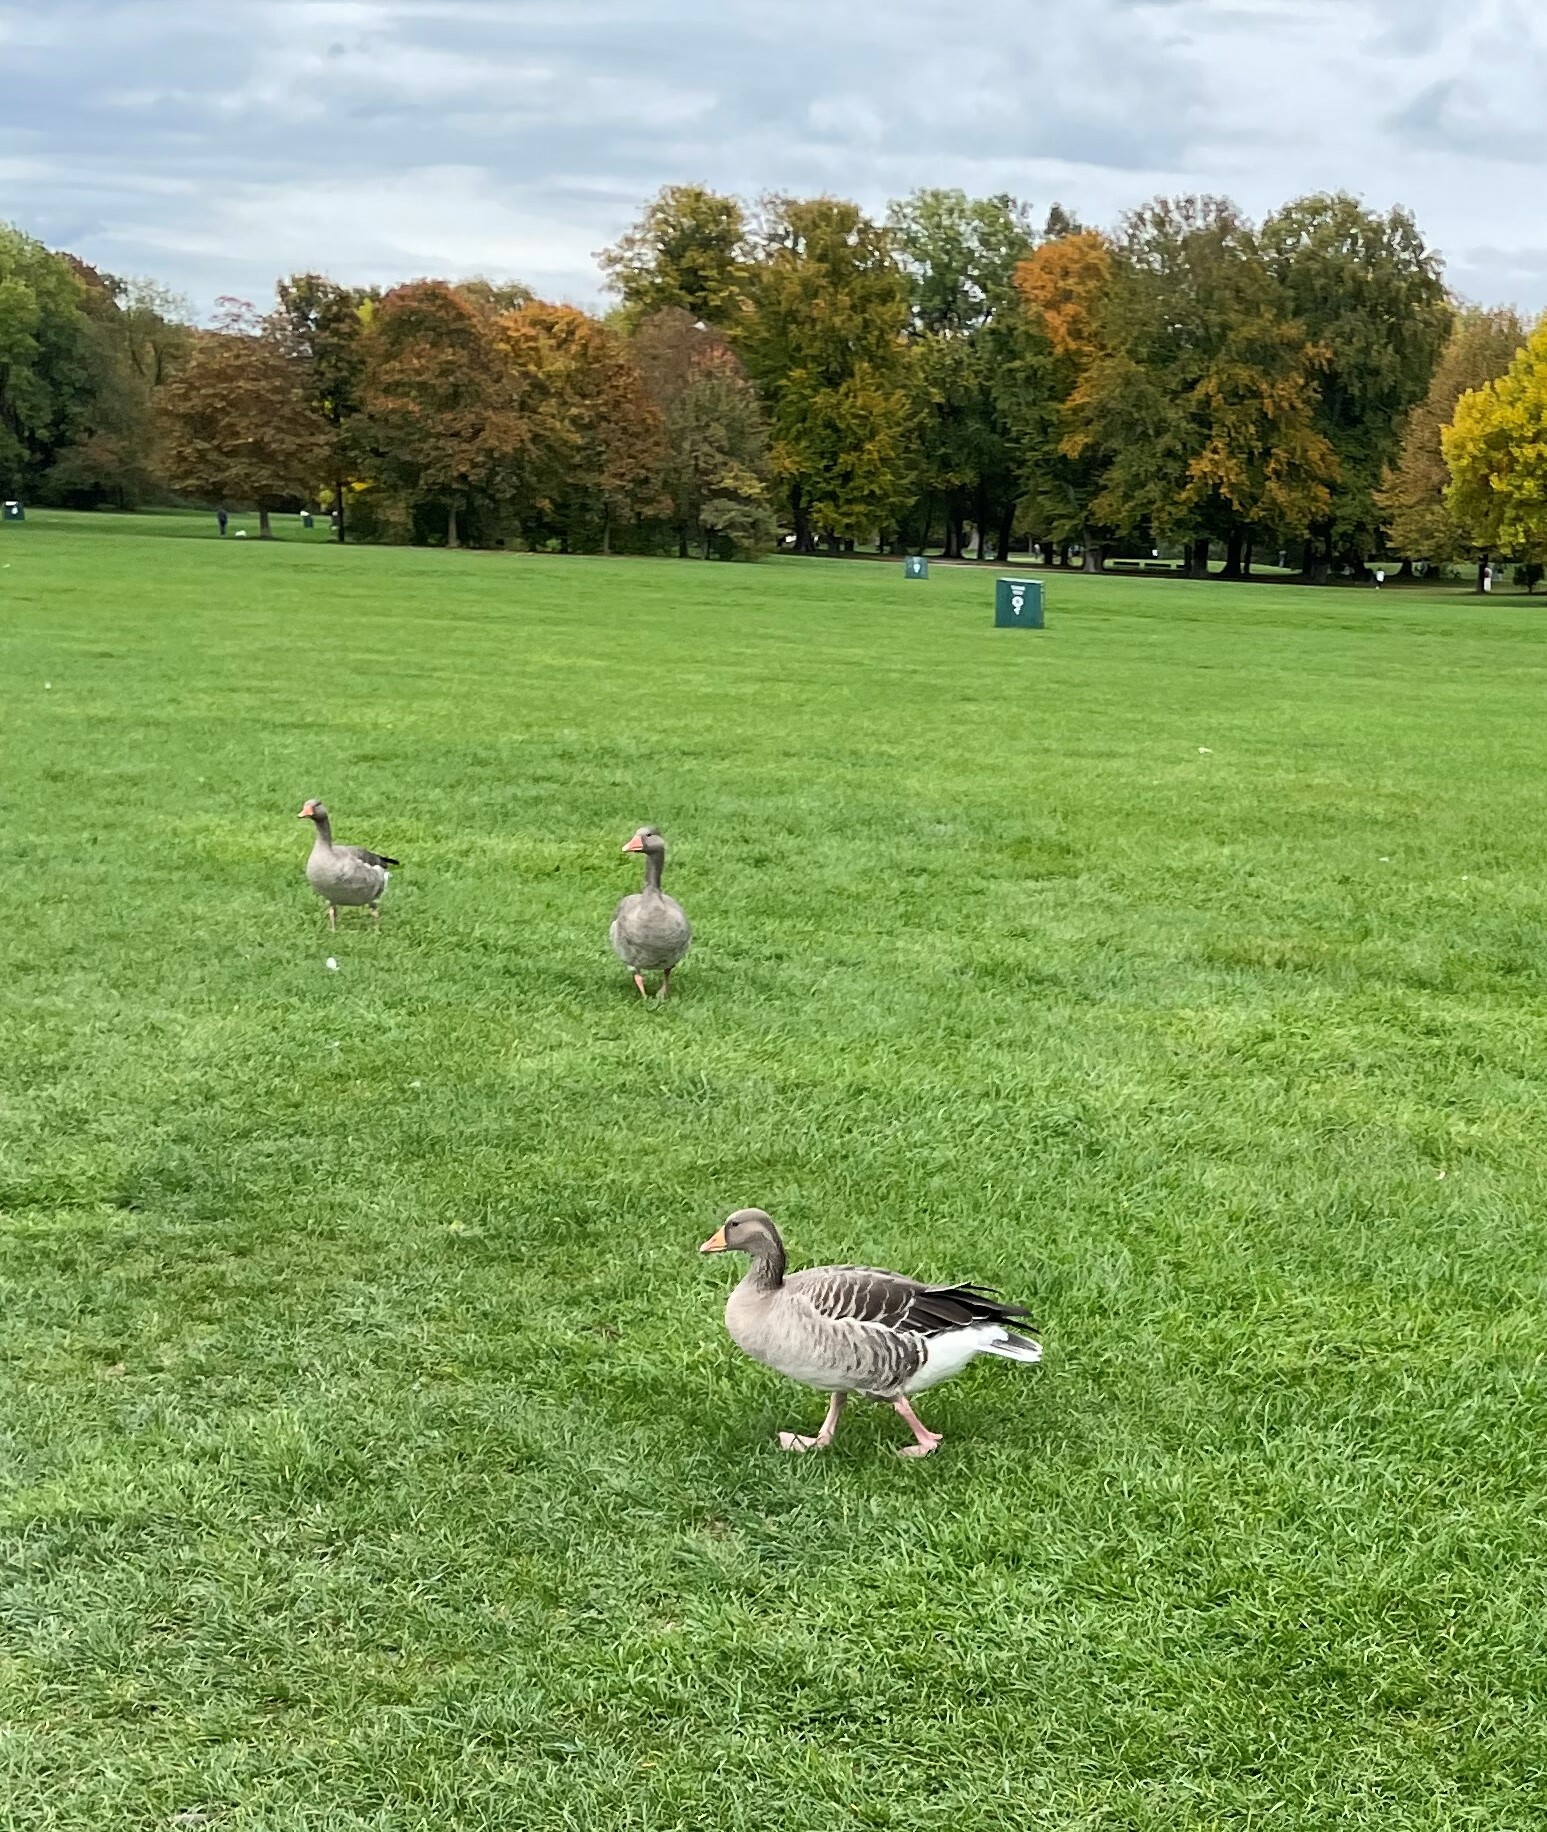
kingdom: Animalia
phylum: Chordata
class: Aves
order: Anseriformes
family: Anatidae
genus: Anser
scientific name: Anser anser
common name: Greylag goose
